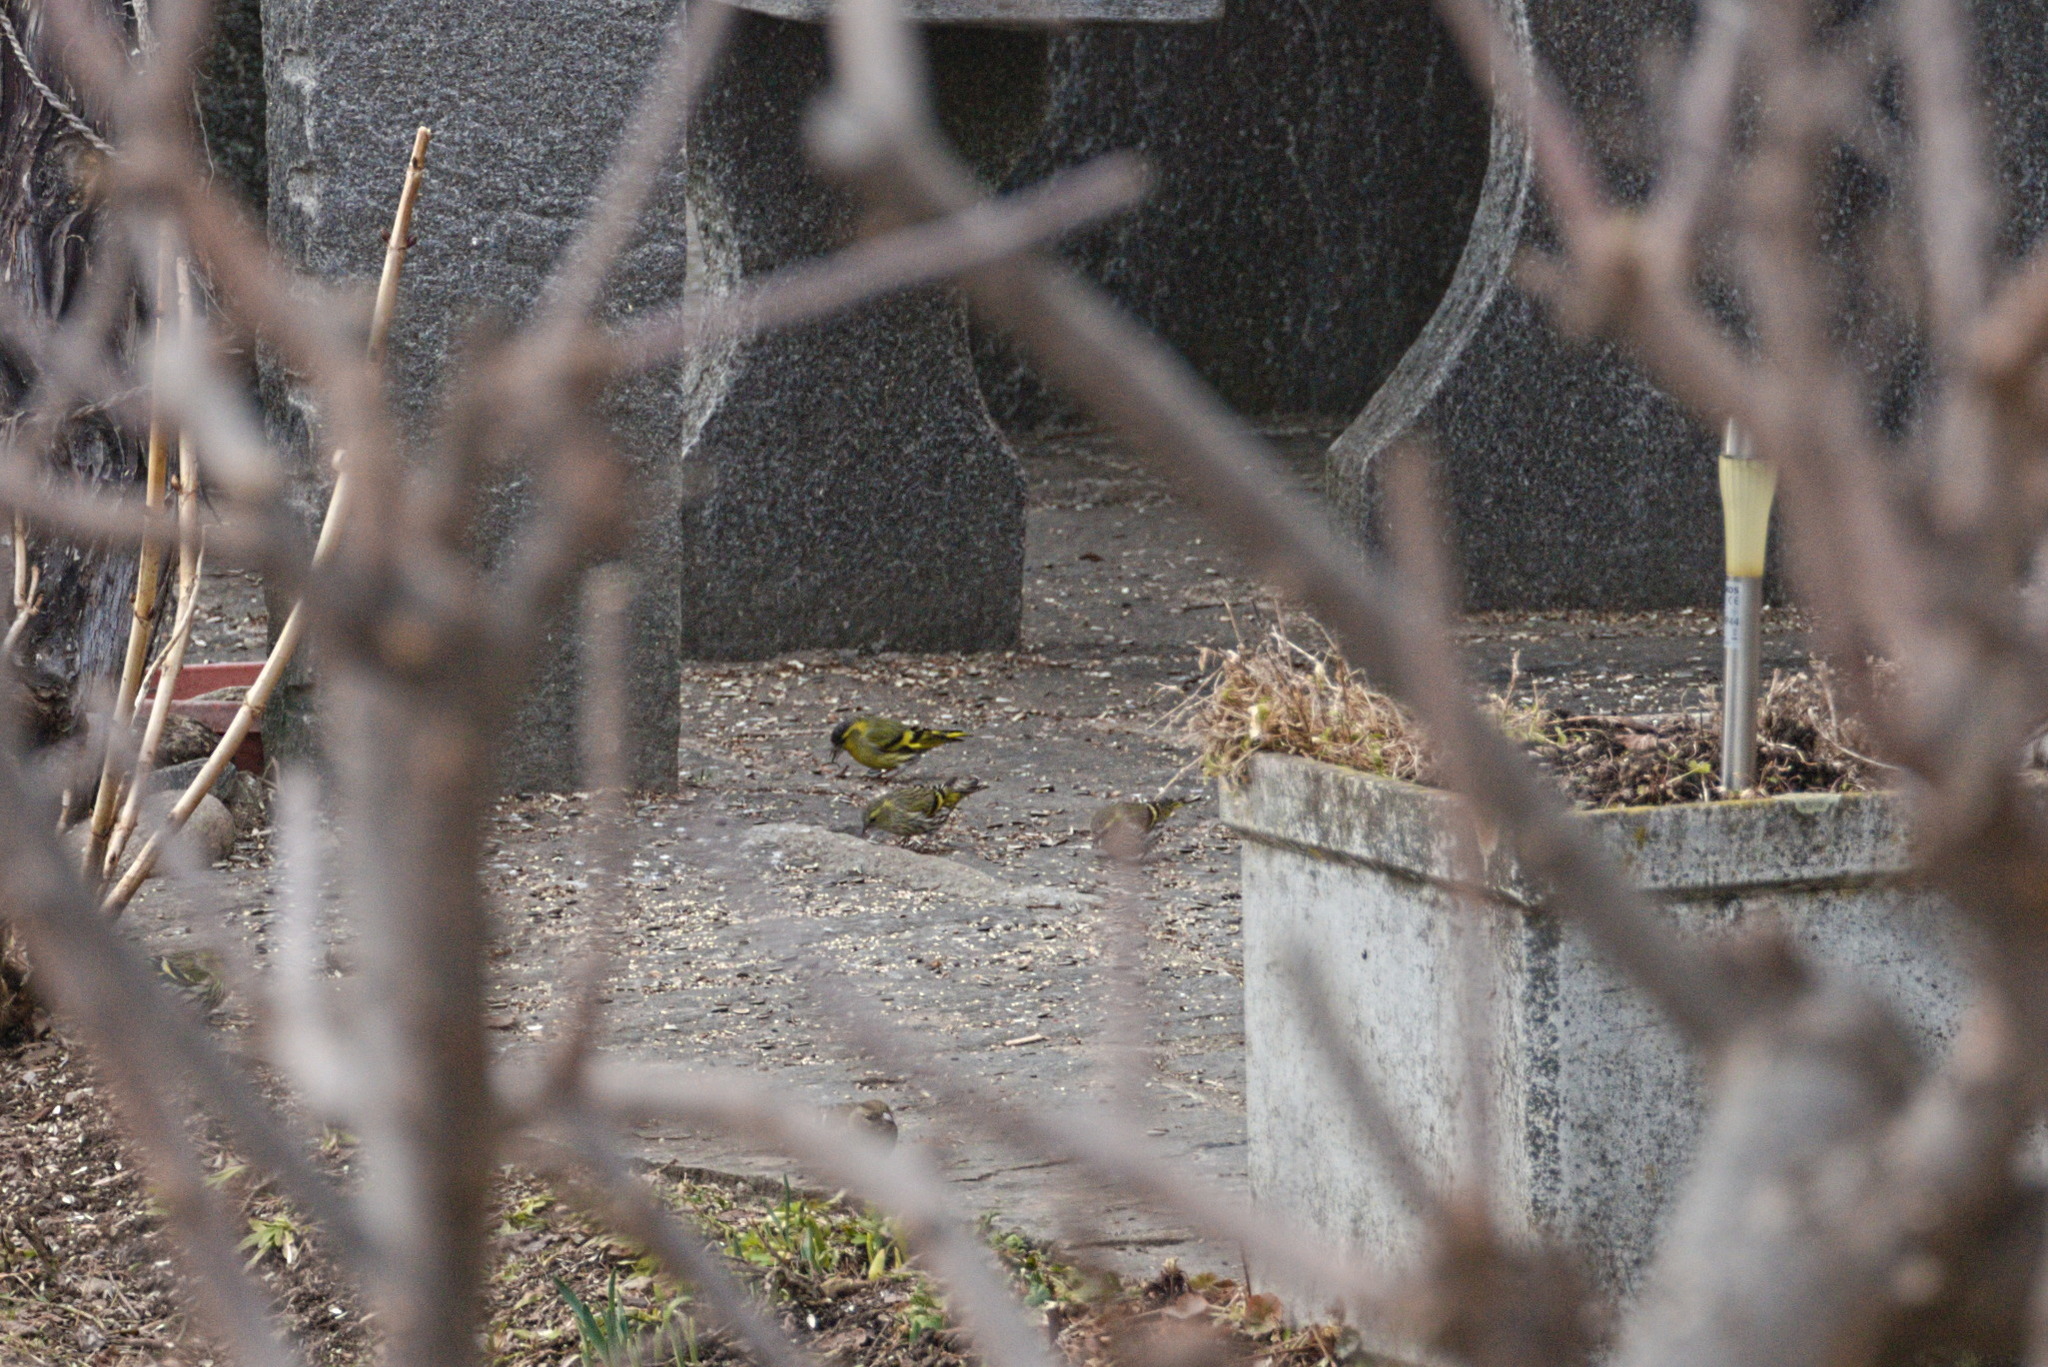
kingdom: Animalia
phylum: Chordata
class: Aves
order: Passeriformes
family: Fringillidae
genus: Spinus
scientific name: Spinus spinus
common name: Eurasian siskin
